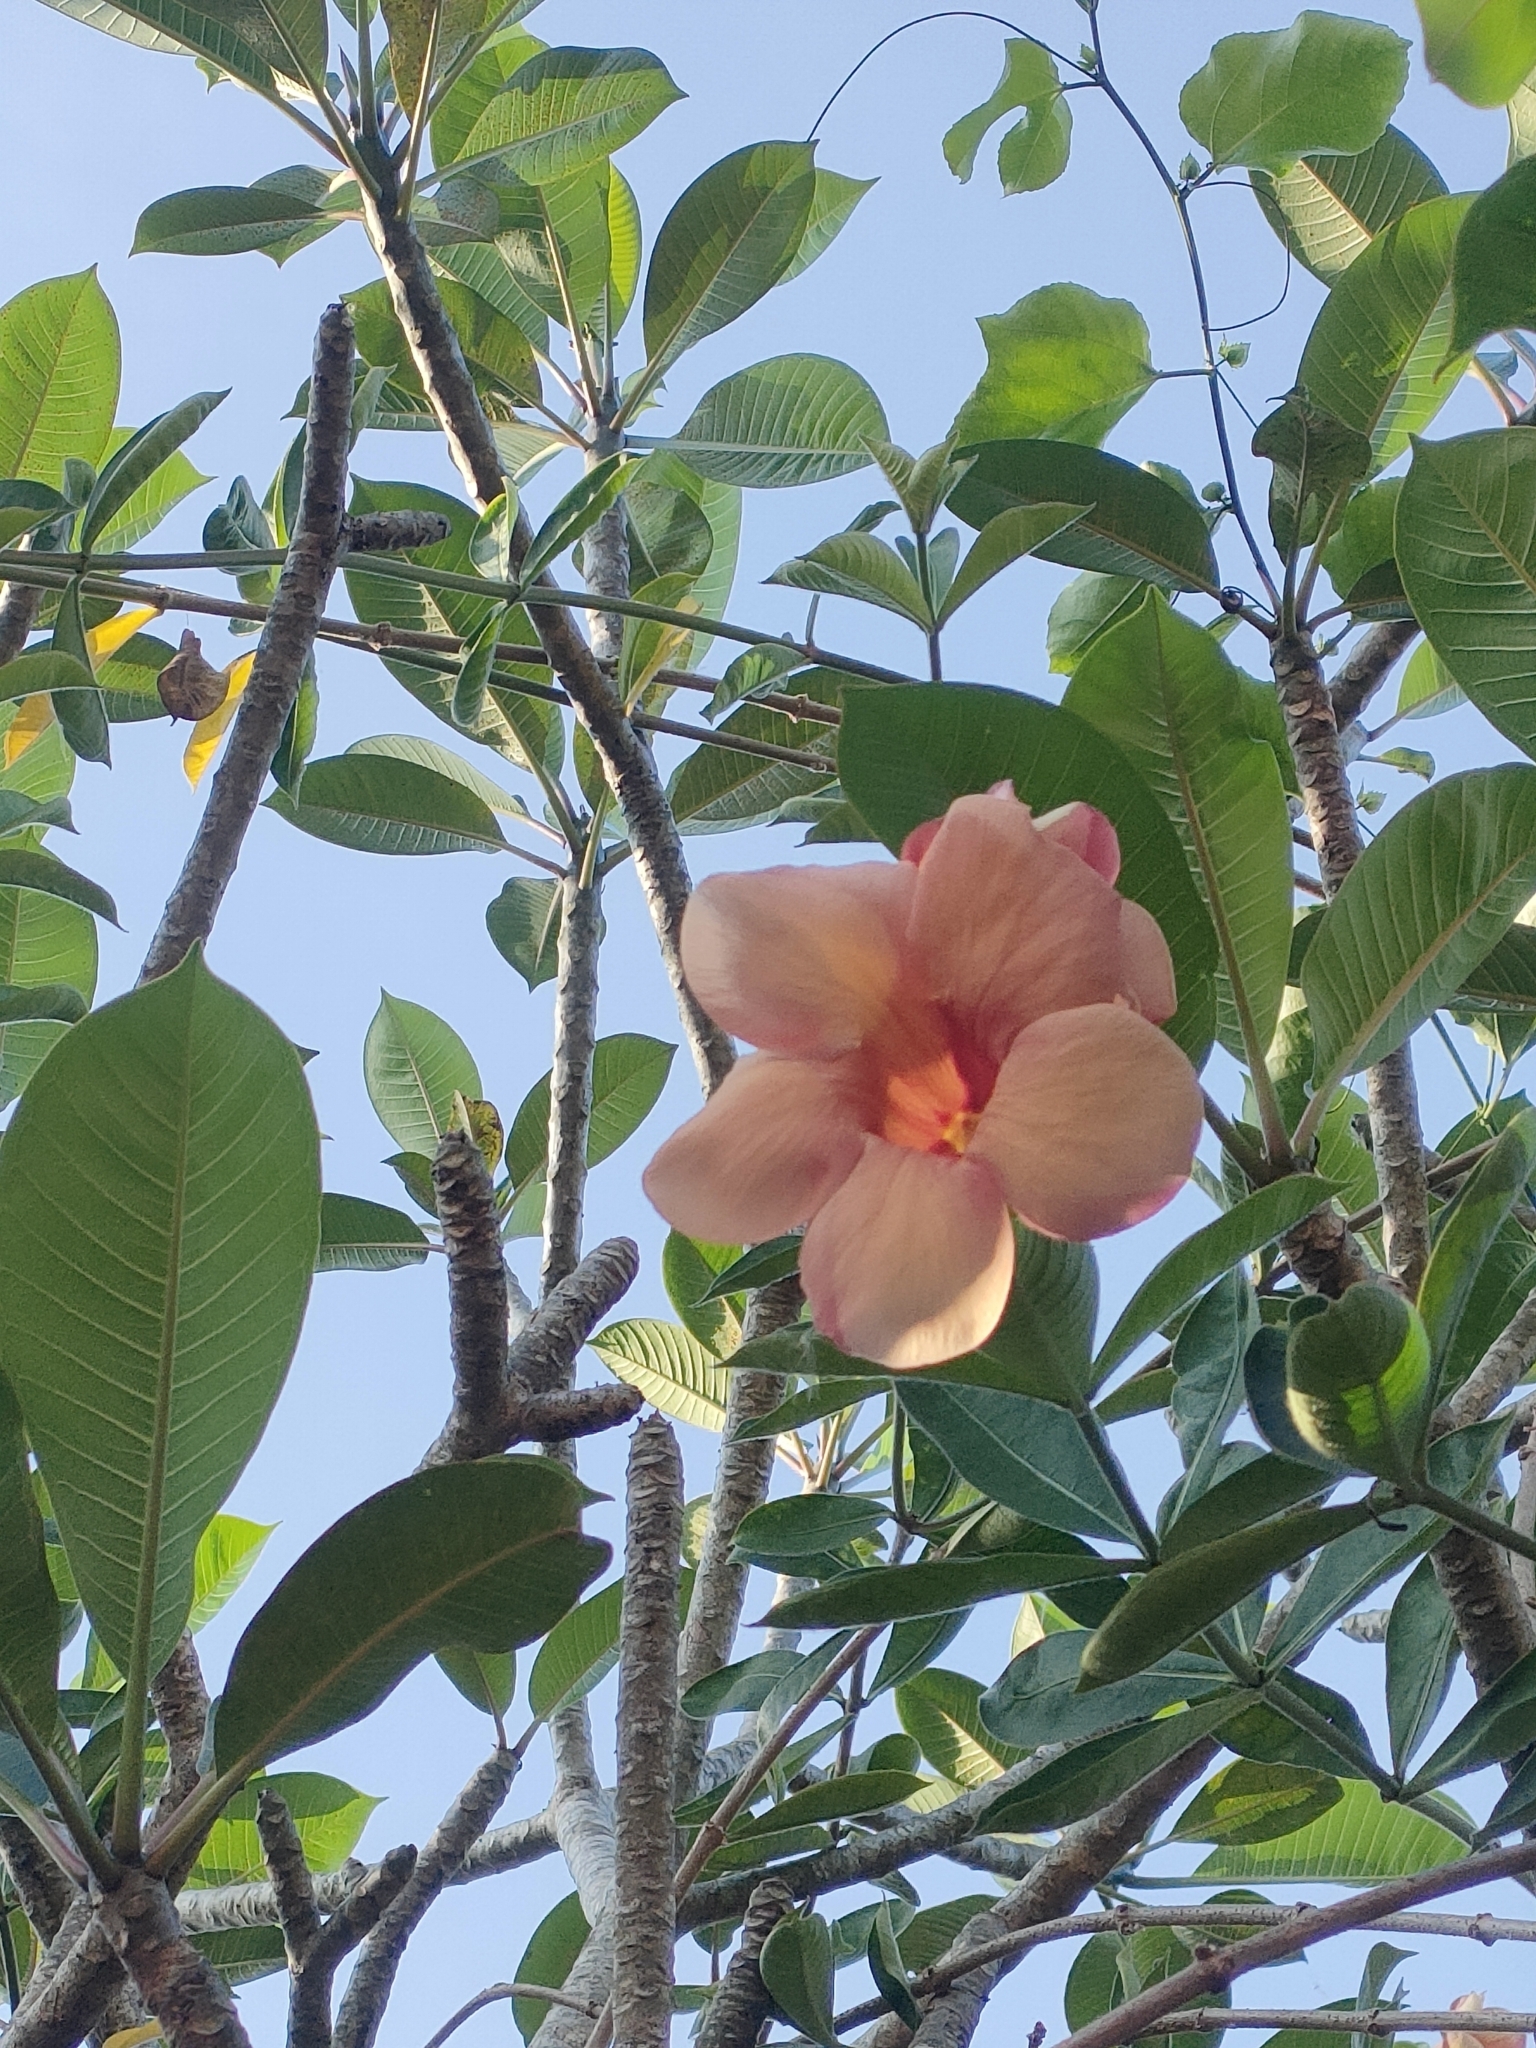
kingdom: Plantae
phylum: Tracheophyta
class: Magnoliopsida
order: Gentianales
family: Apocynaceae
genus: Allamanda
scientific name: Allamanda blanchetii
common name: Purple allamanda
